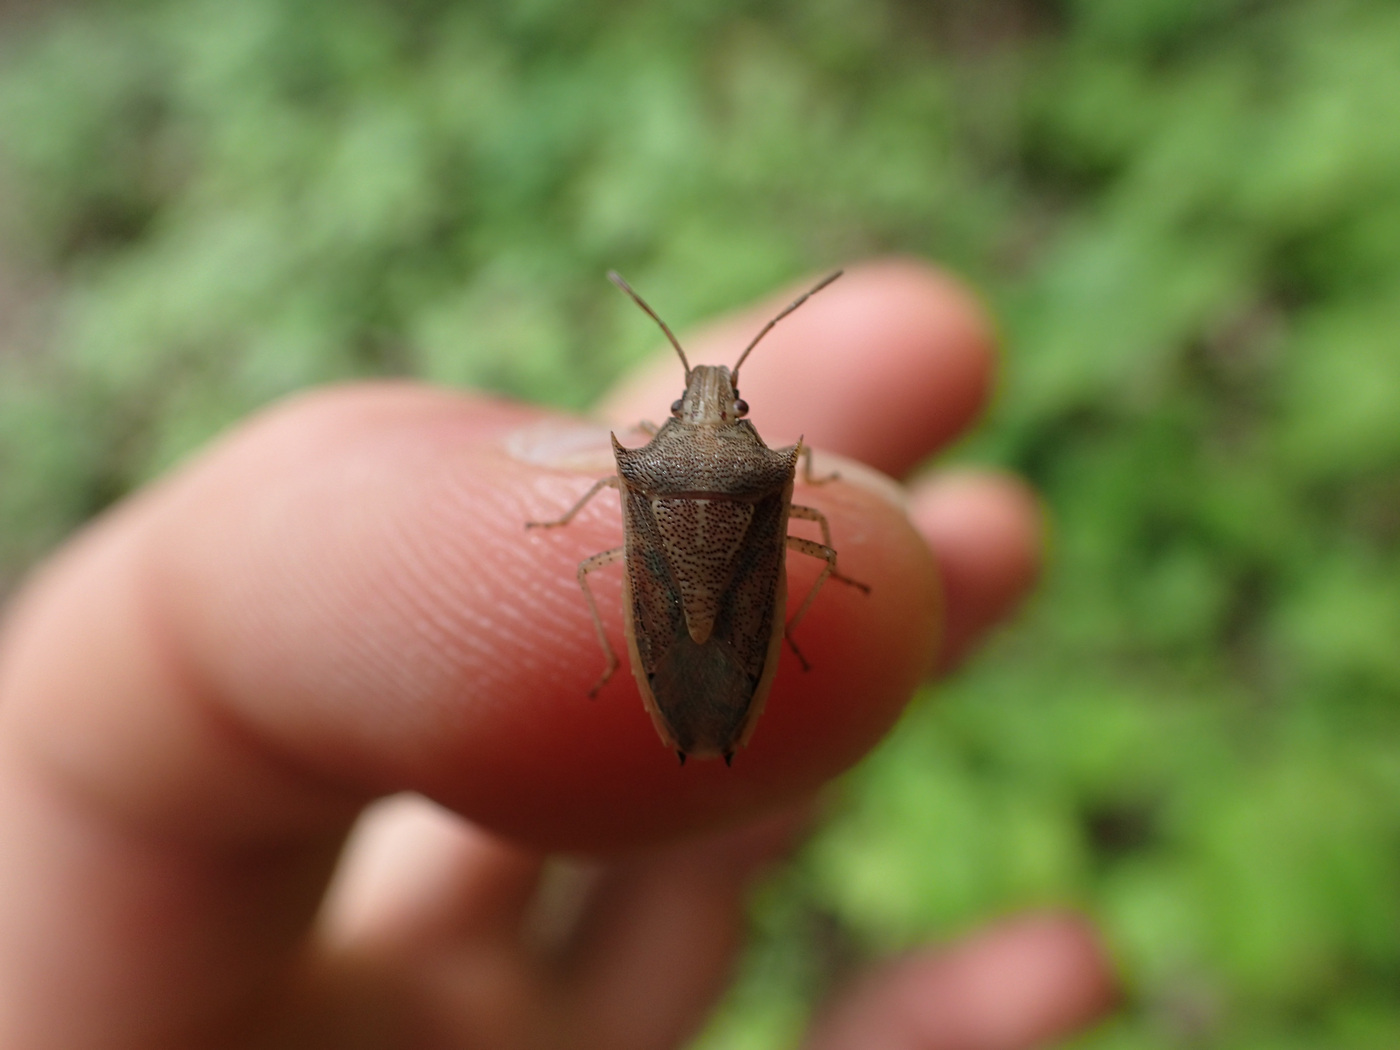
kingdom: Animalia
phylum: Arthropoda
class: Insecta
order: Hemiptera
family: Pentatomidae
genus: Oebalus
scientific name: Oebalus pugnax
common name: Rice stink bug
